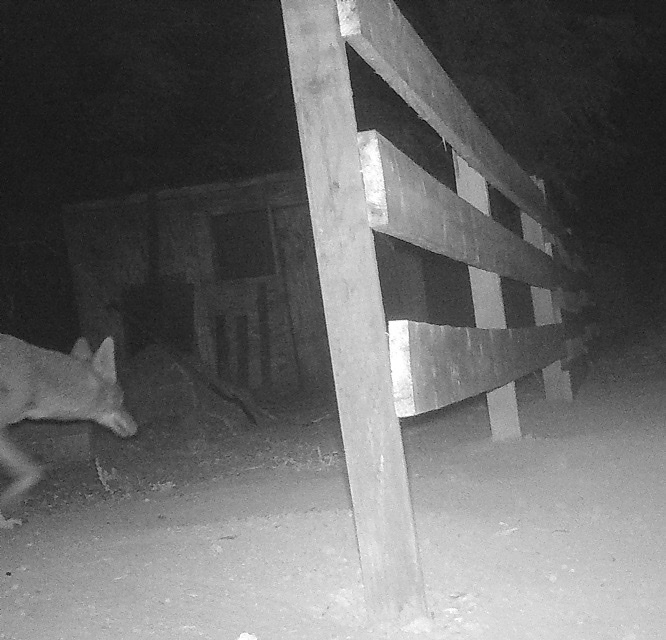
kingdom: Animalia
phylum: Chordata
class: Mammalia
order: Carnivora
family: Canidae
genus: Canis
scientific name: Canis latrans
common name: Coyote
